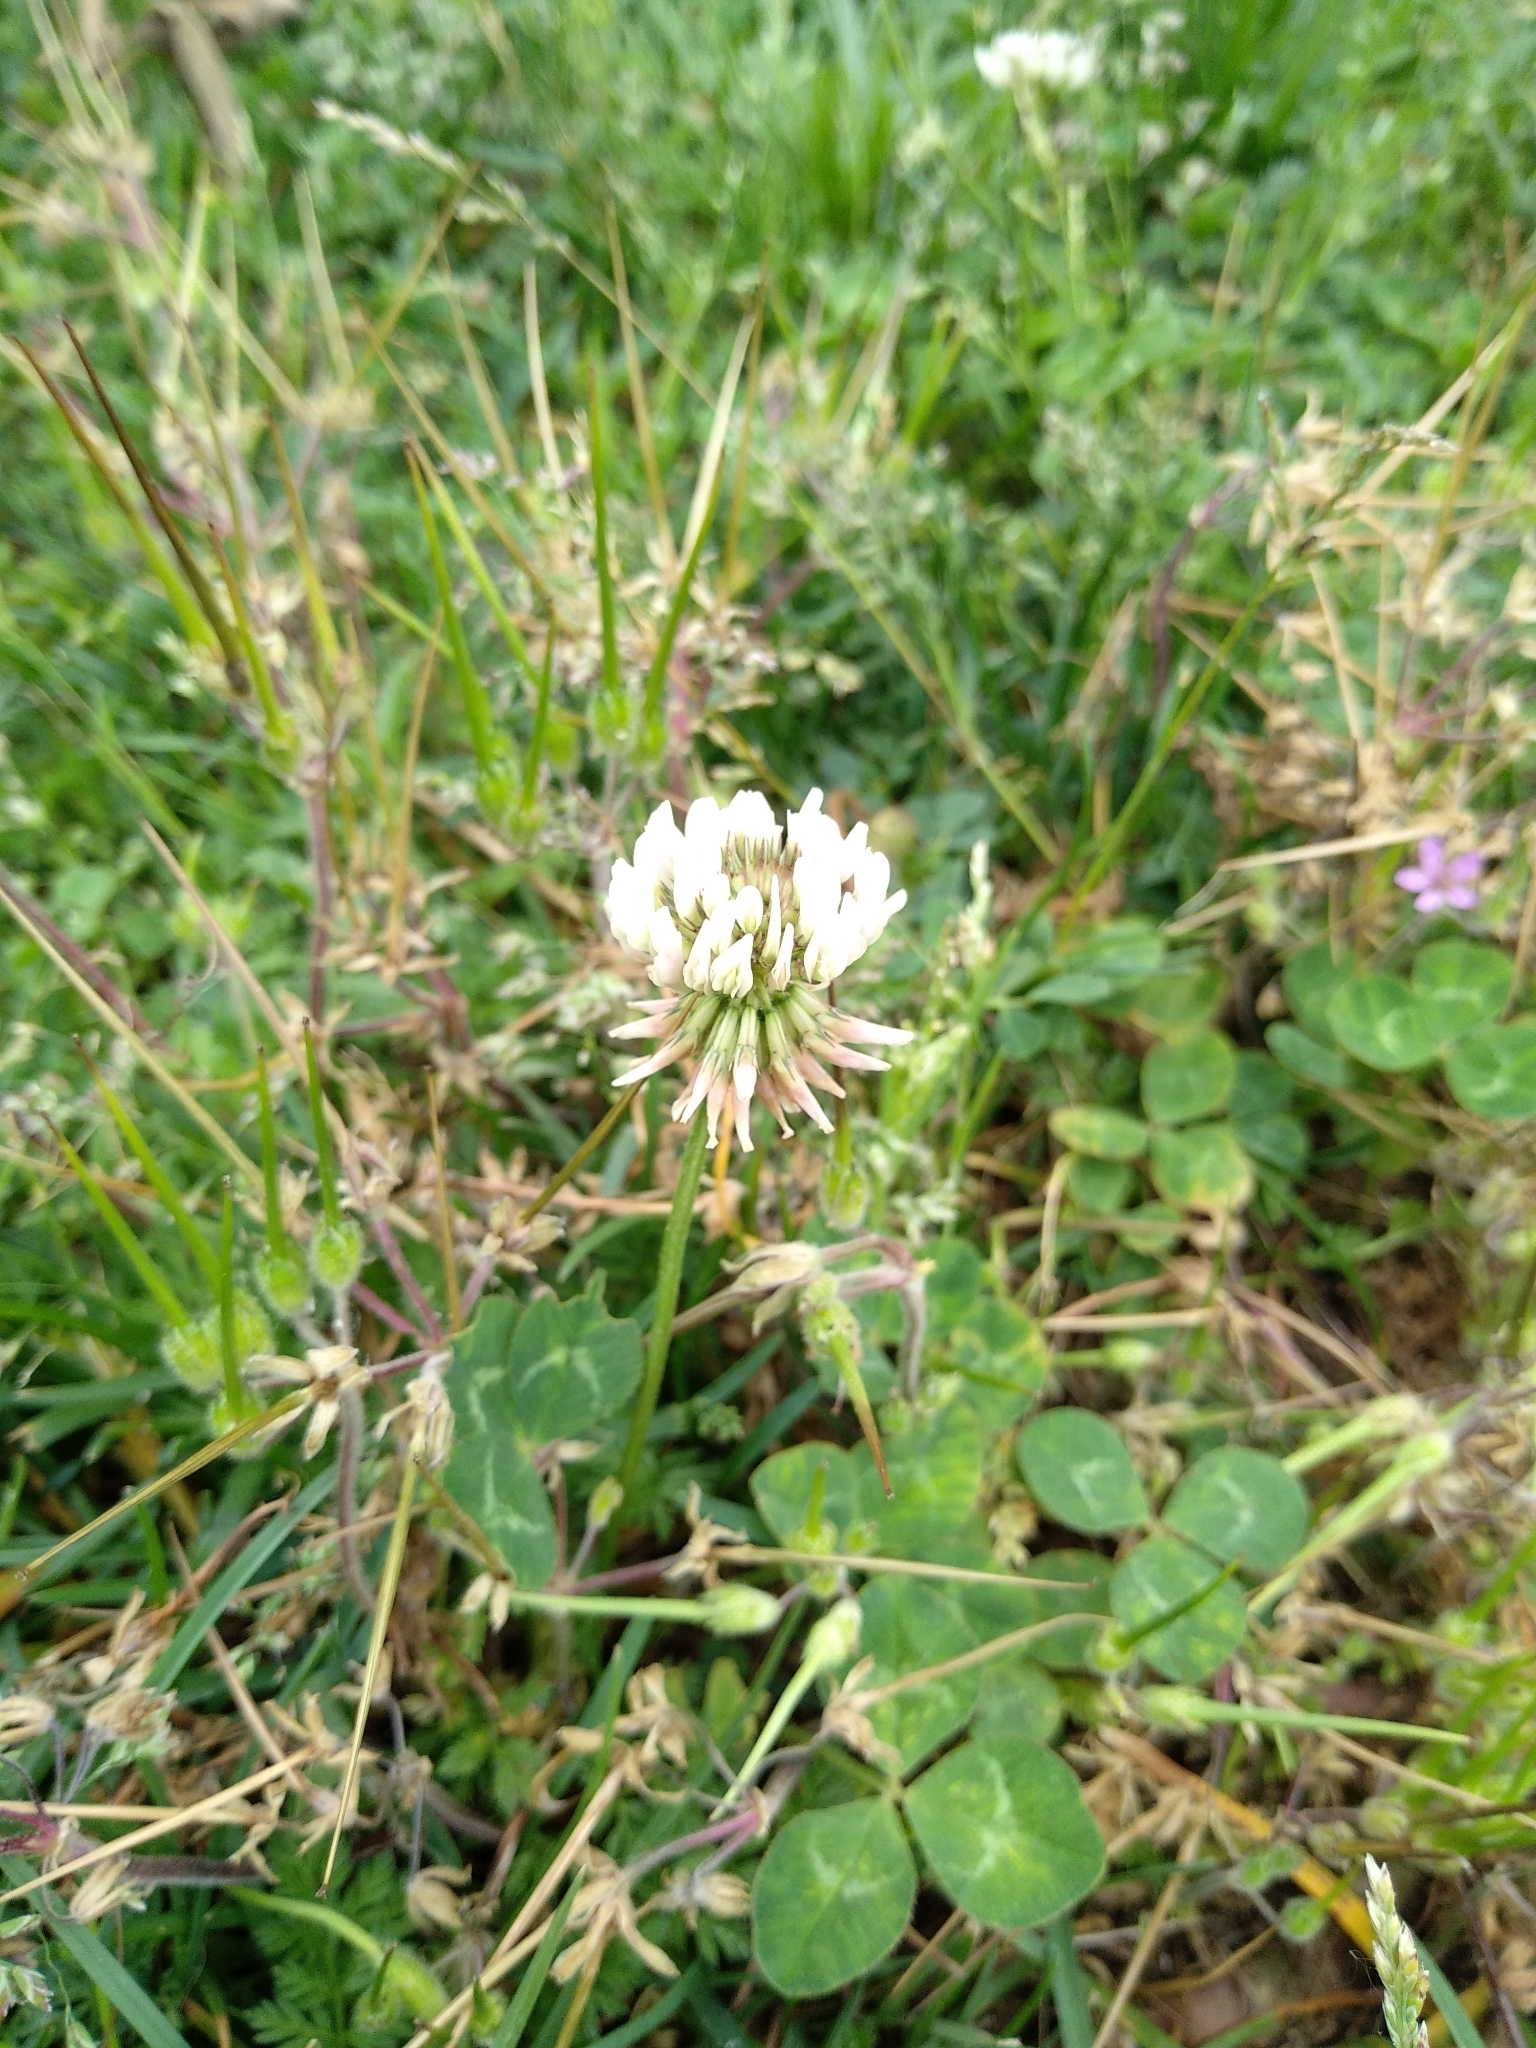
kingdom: Plantae
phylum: Tracheophyta
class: Magnoliopsida
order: Fabales
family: Fabaceae
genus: Trifolium
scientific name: Trifolium repens
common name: White clover
